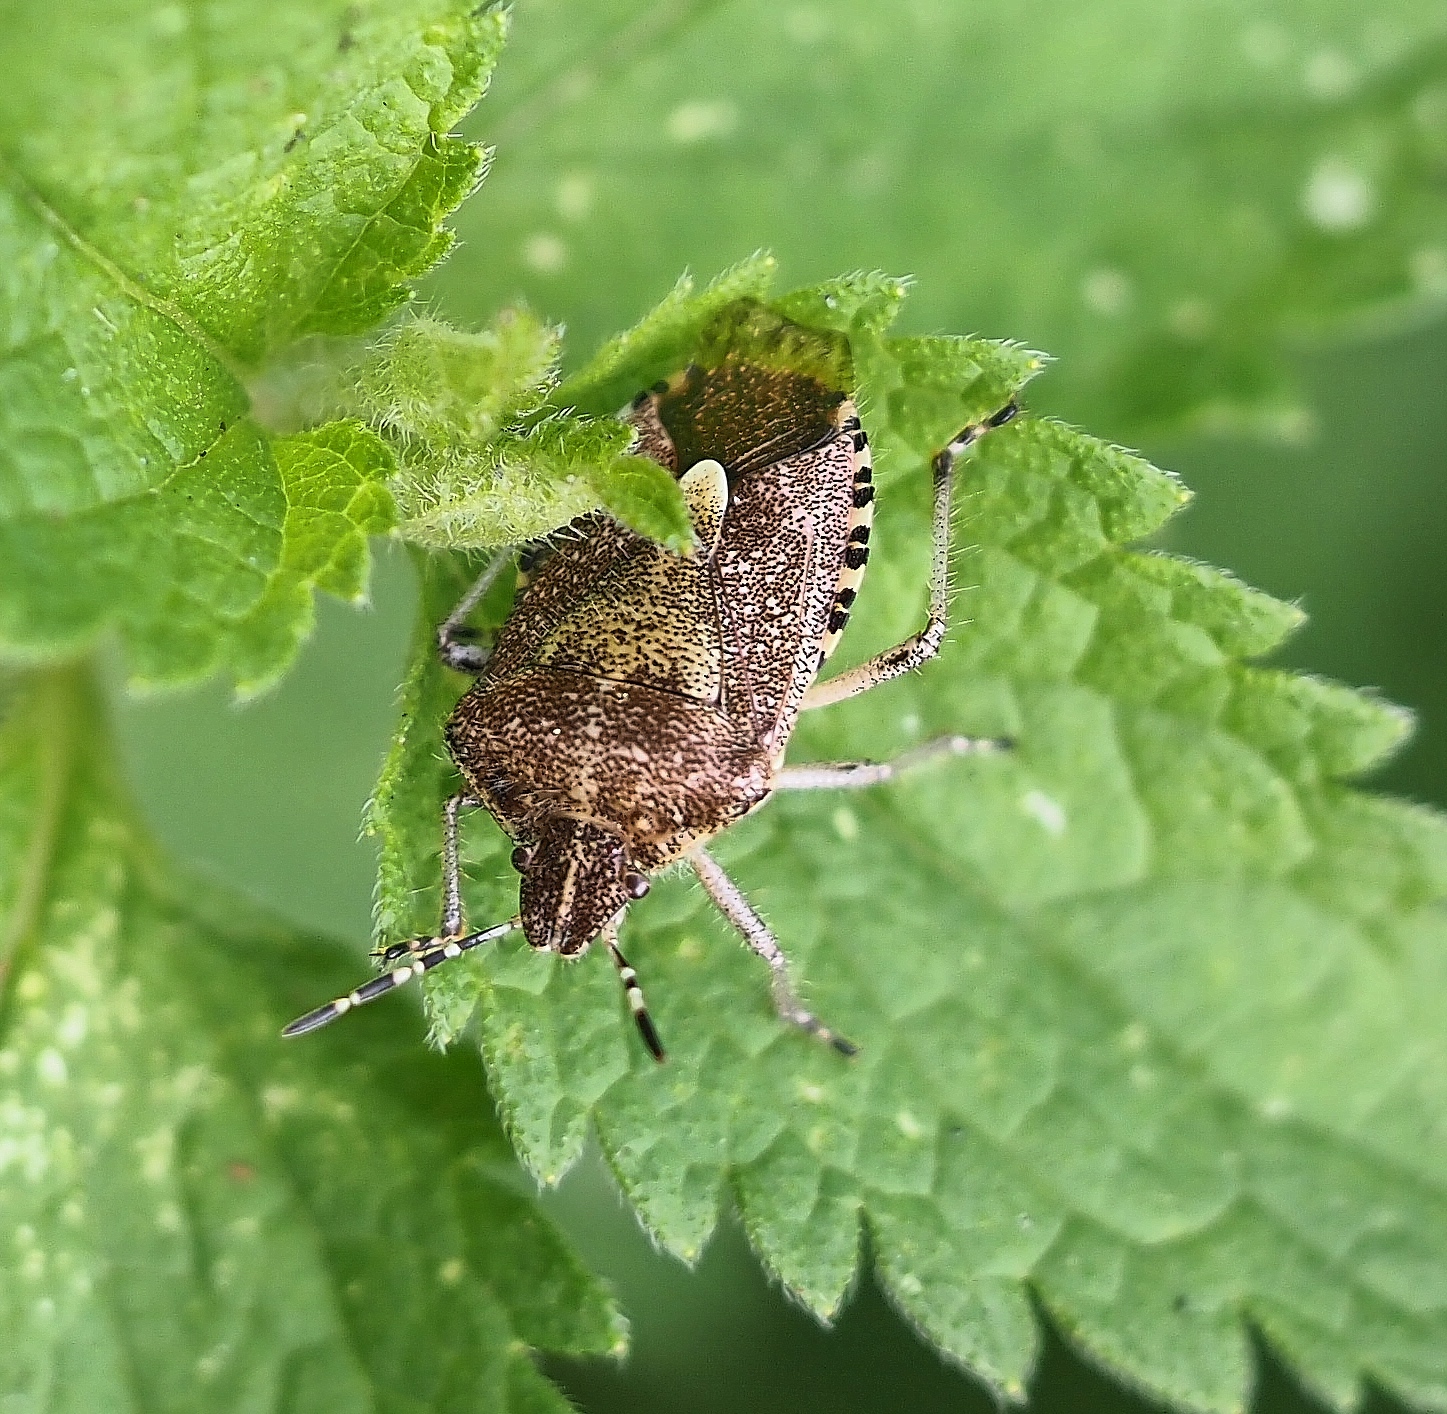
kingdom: Animalia
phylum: Arthropoda
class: Insecta
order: Hemiptera
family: Pentatomidae
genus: Dolycoris
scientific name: Dolycoris baccarum
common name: Sloe bug
